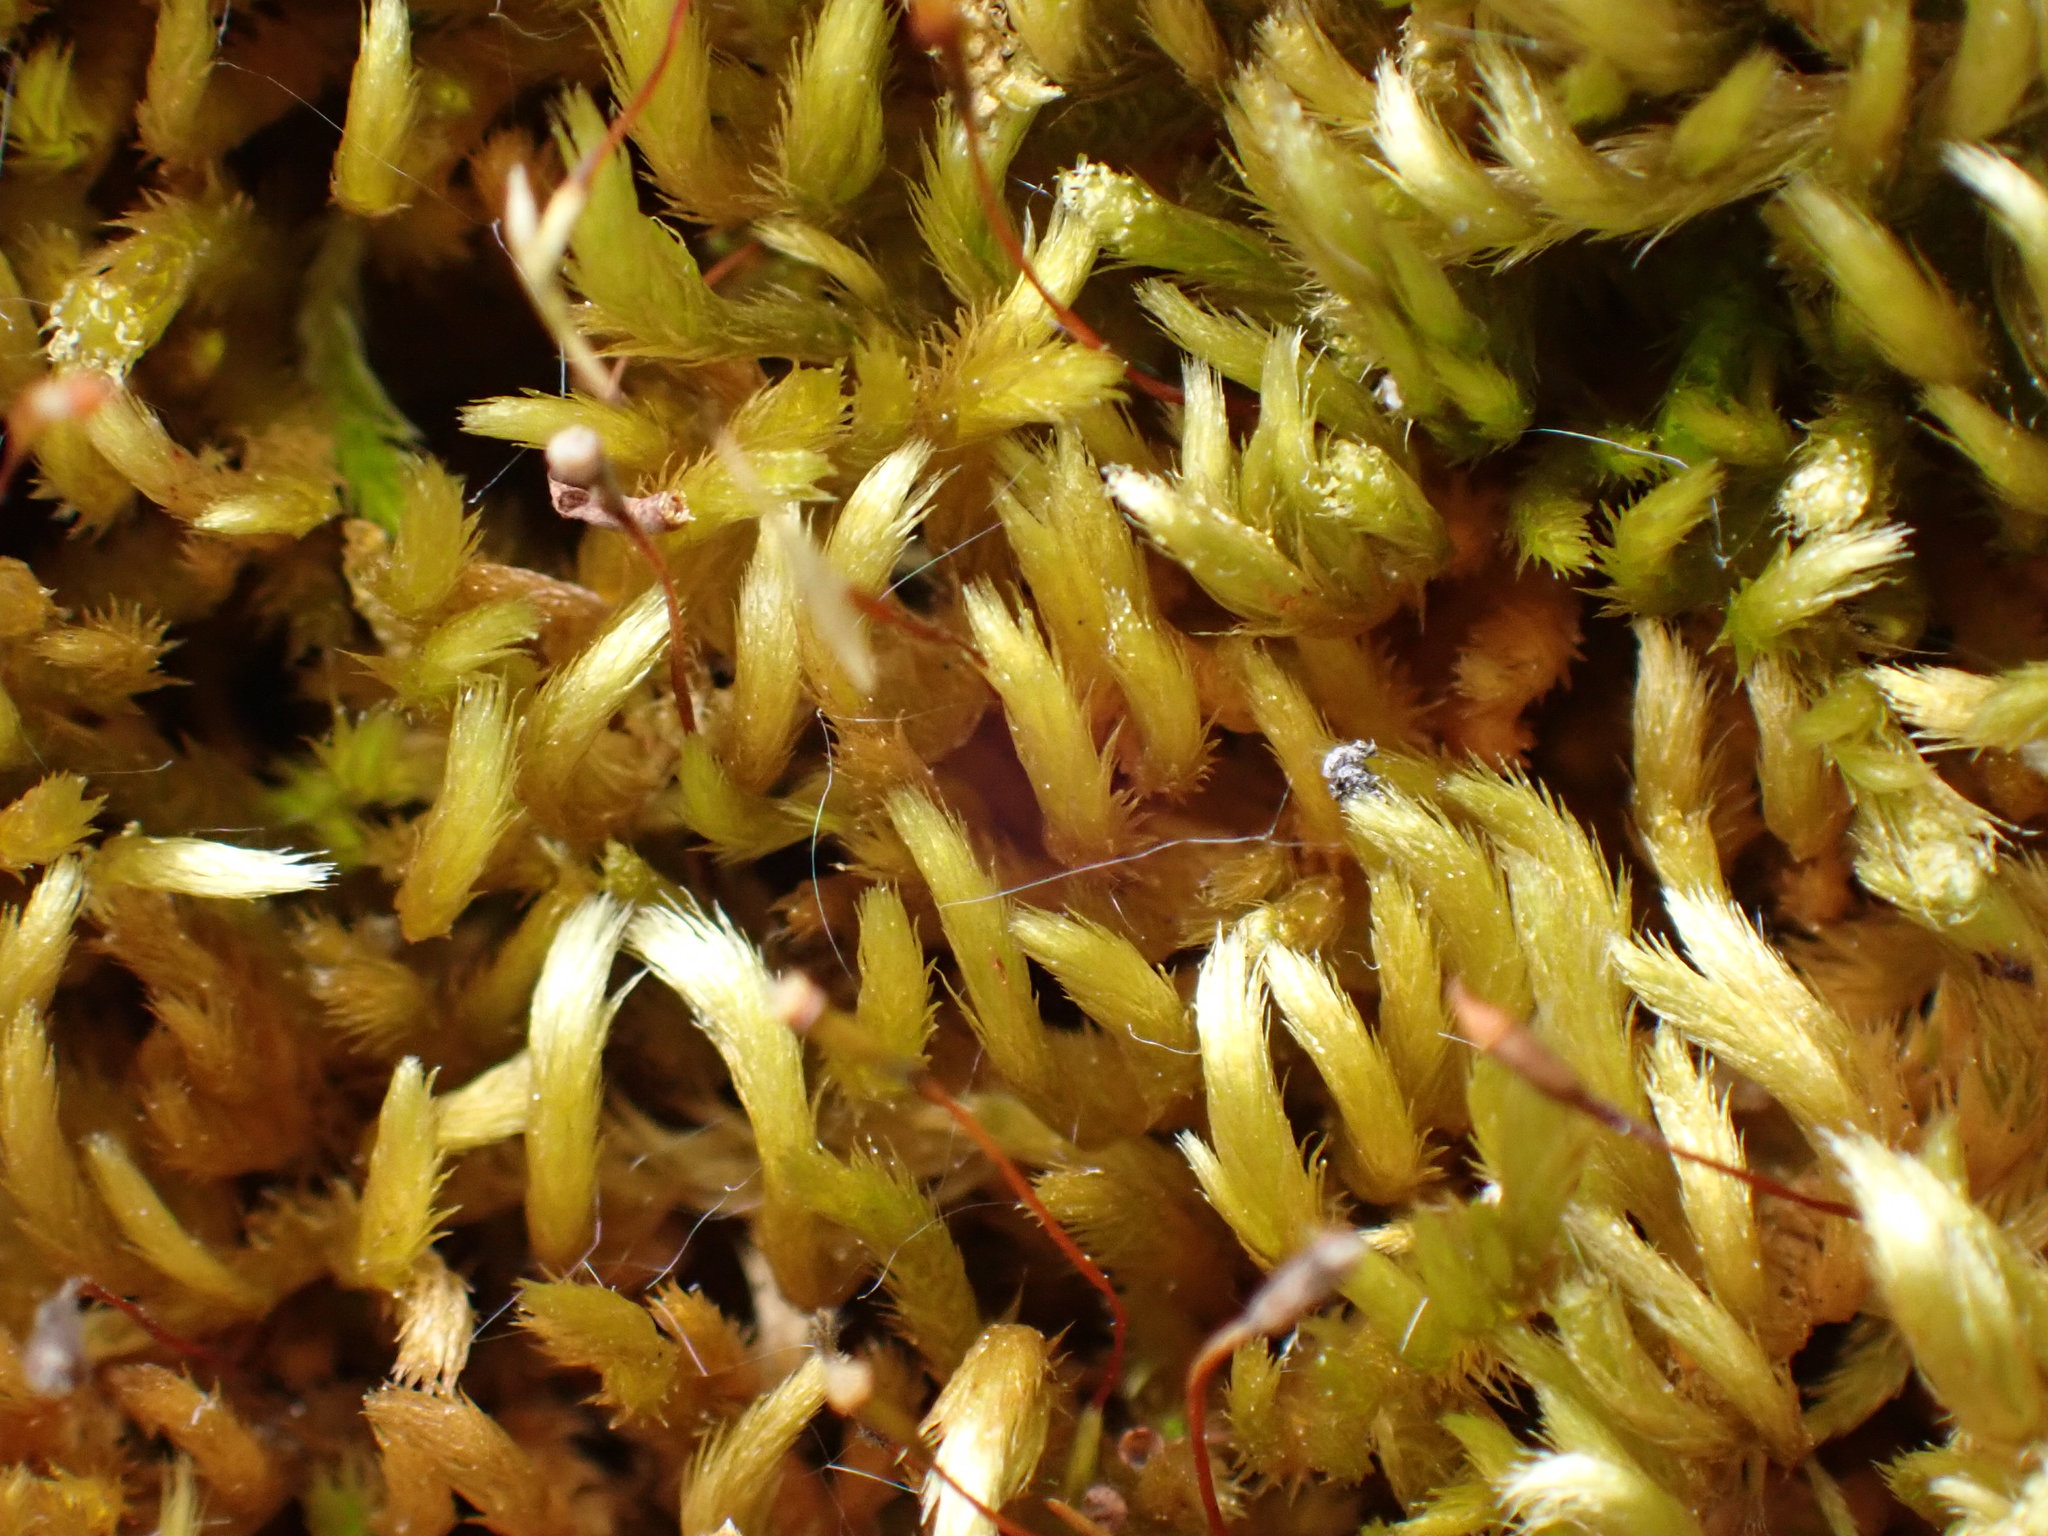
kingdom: Plantae
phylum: Bryophyta
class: Bryopsida
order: Hypnales
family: Brachytheciaceae
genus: Homalothecium
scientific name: Homalothecium aureum
